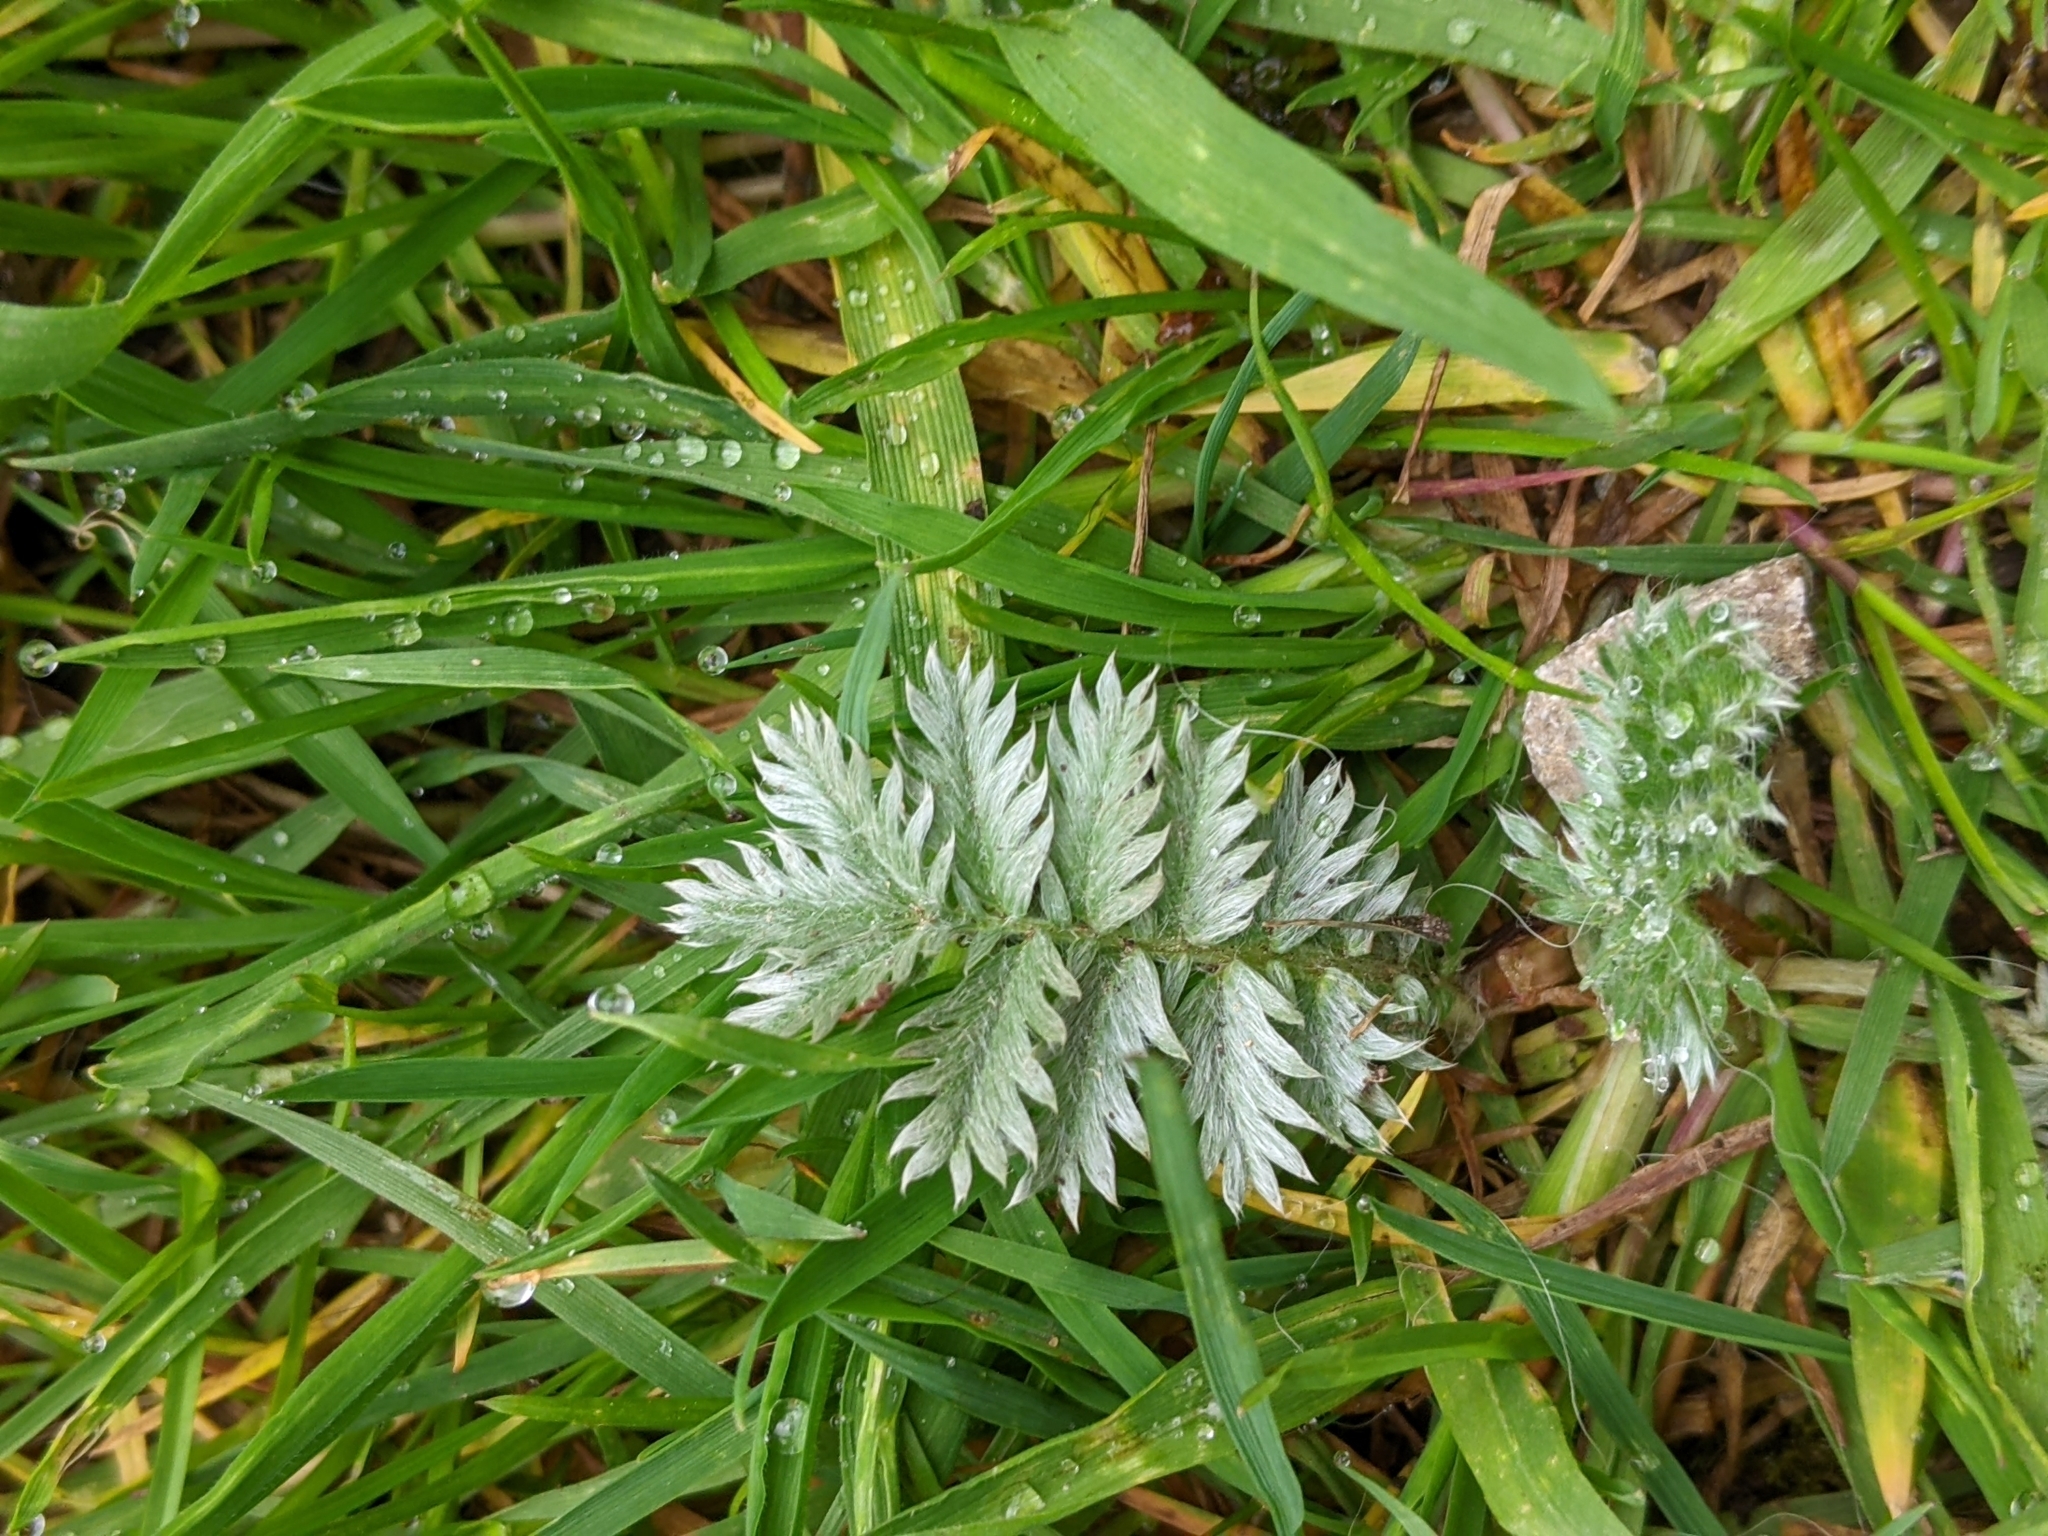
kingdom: Plantae
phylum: Tracheophyta
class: Magnoliopsida
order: Rosales
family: Rosaceae
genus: Argentina
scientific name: Argentina anserina
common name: Common silverweed
